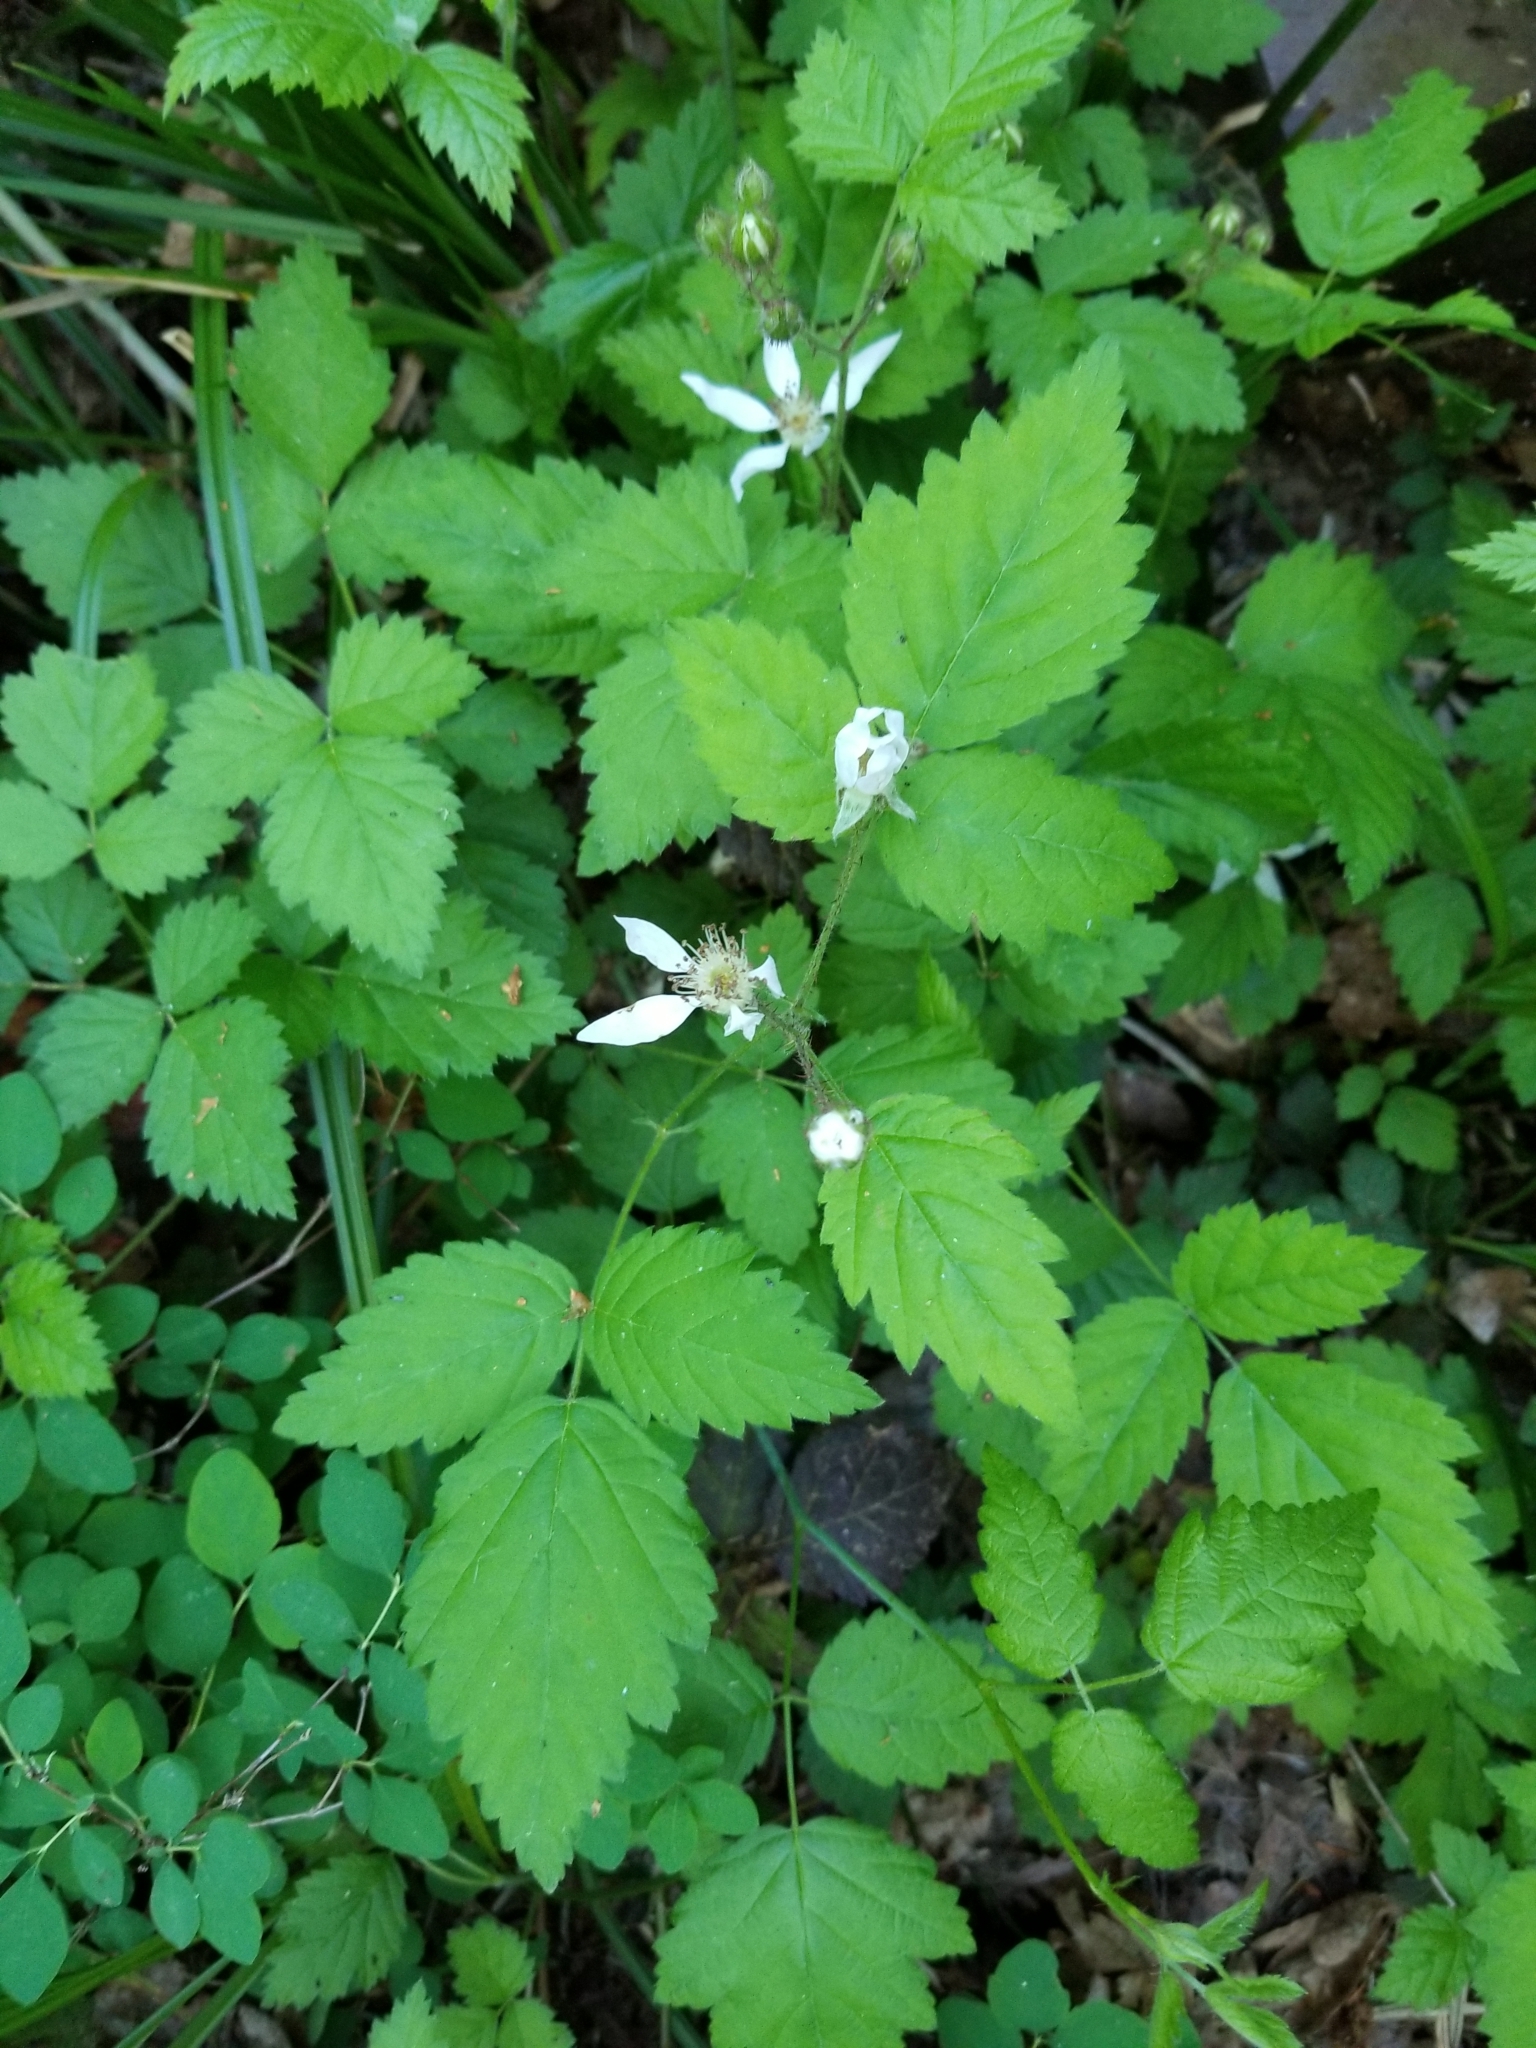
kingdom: Plantae
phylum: Tracheophyta
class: Magnoliopsida
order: Rosales
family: Rosaceae
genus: Rubus
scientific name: Rubus ursinus
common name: Pacific blackberry
